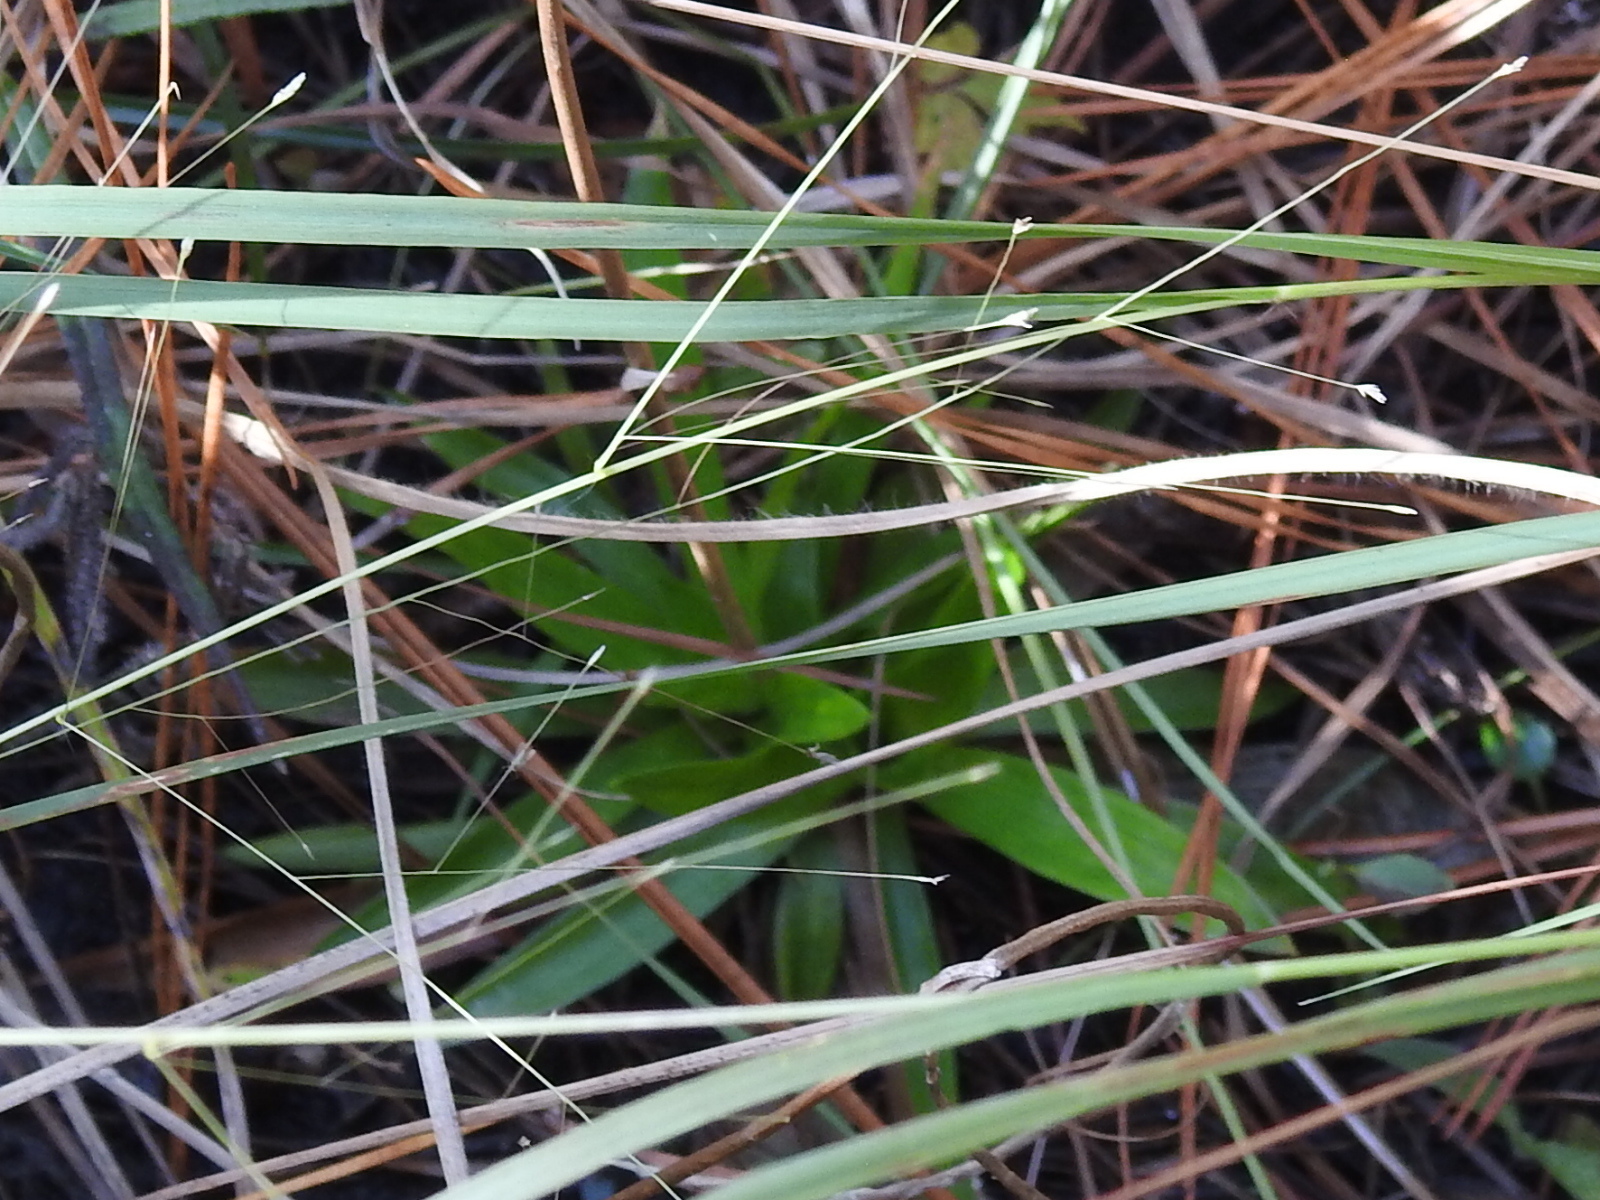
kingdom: Plantae
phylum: Tracheophyta
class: Liliopsida
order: Dioscoreales
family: Nartheciaceae
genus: Aletris
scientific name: Aletris aurea
